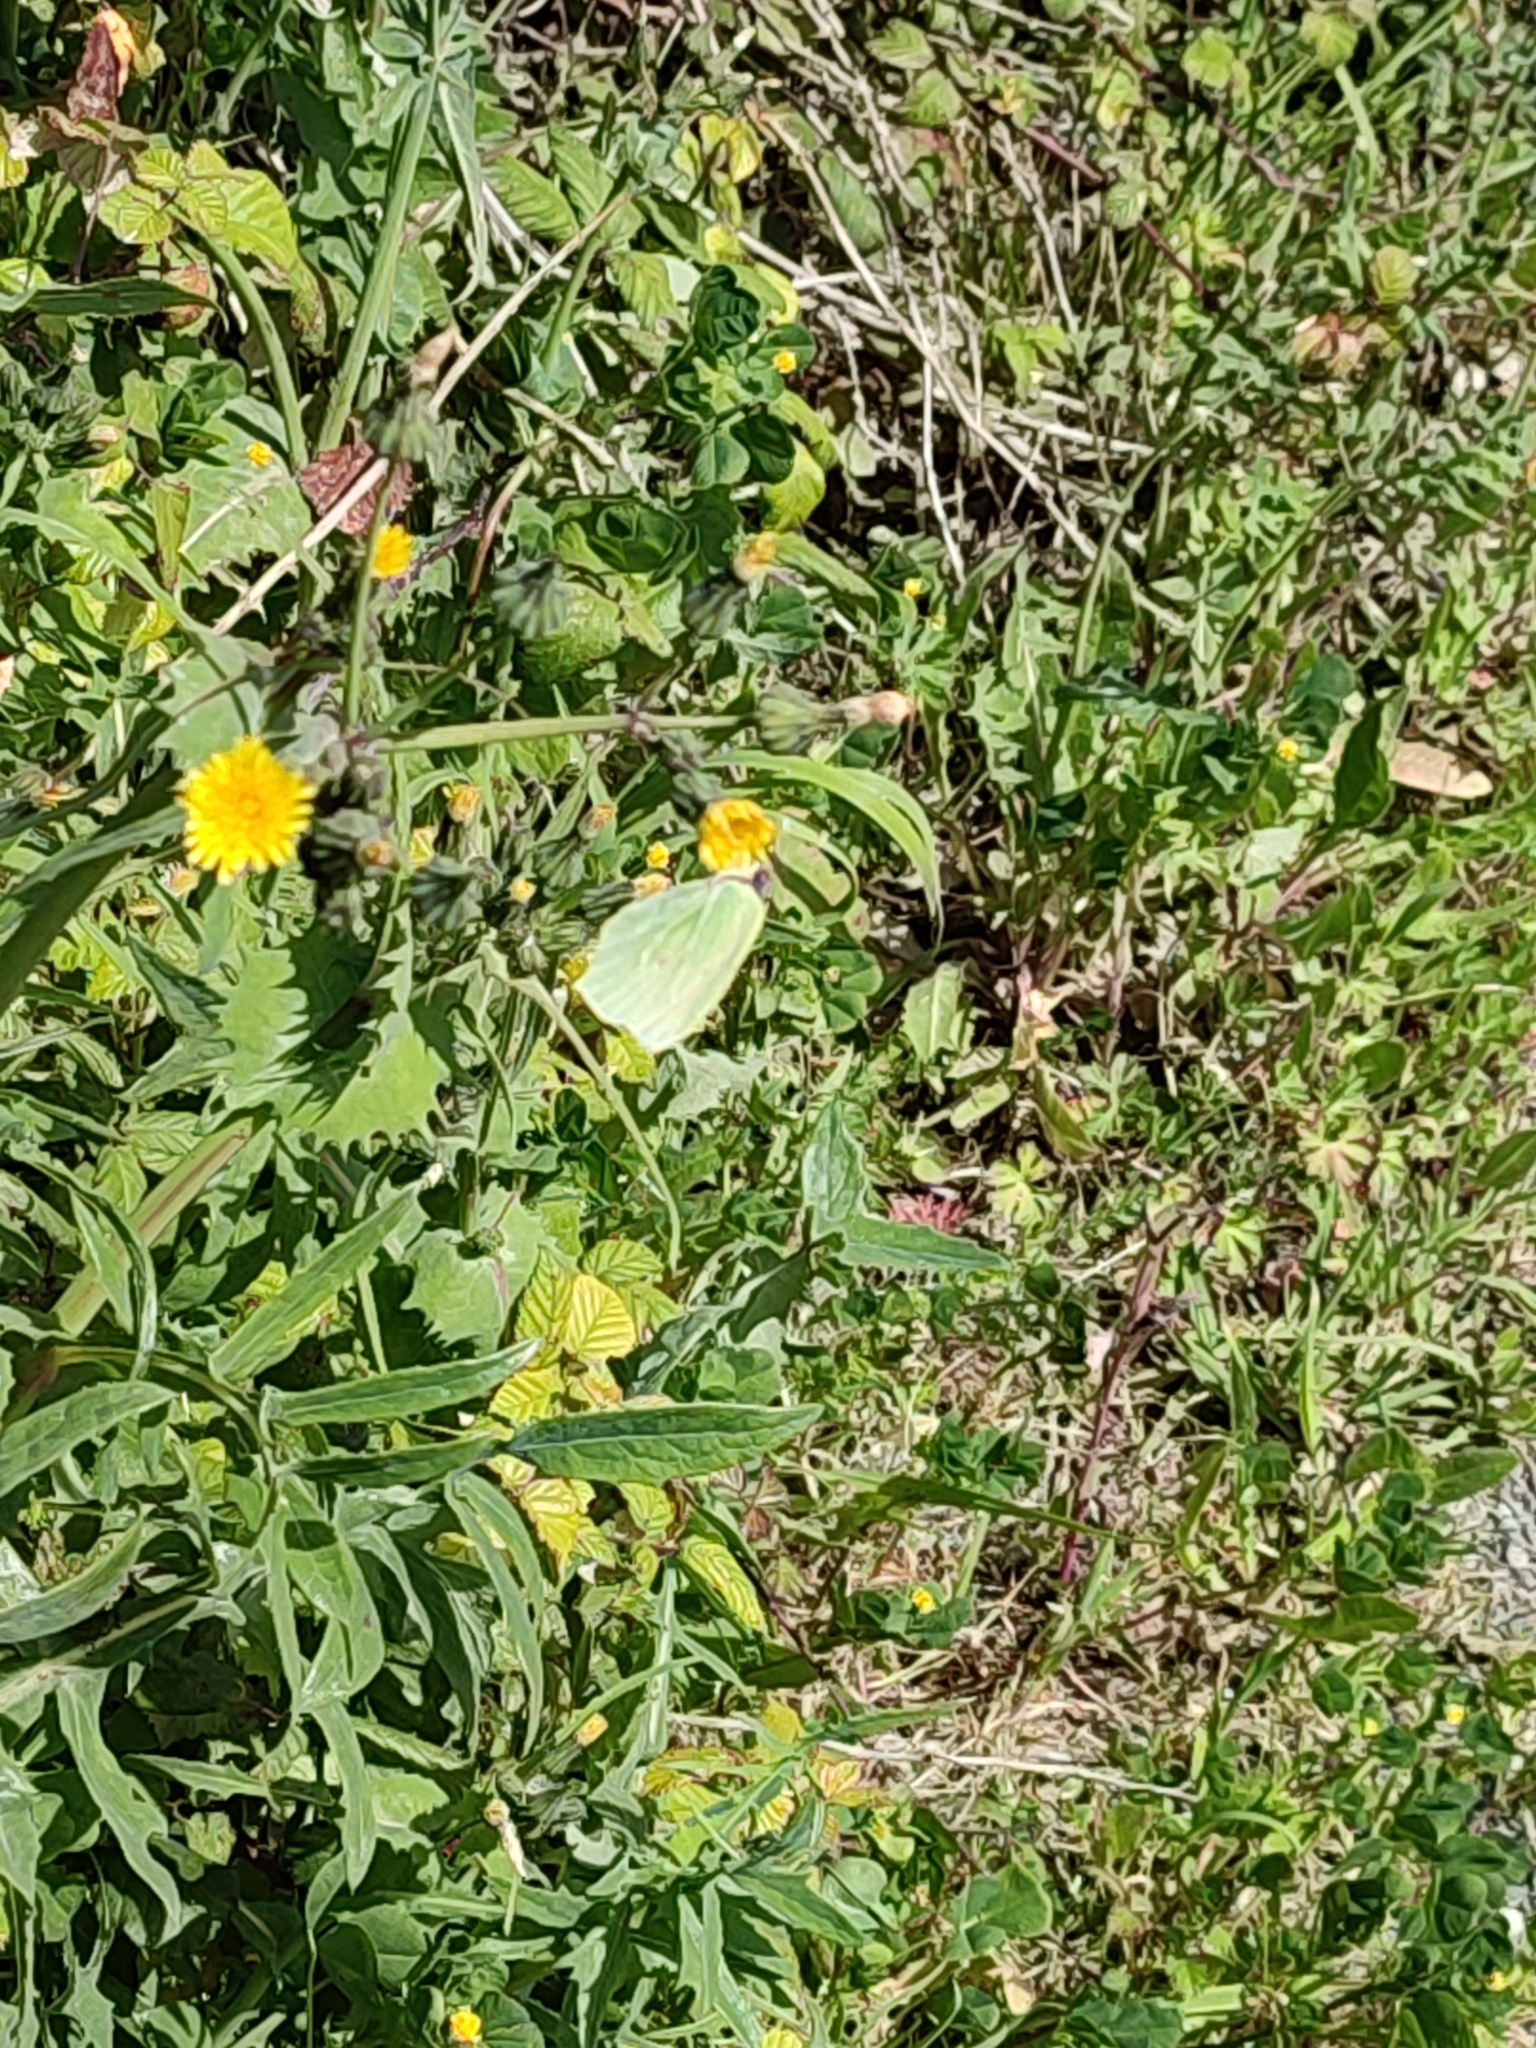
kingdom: Animalia
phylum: Arthropoda
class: Insecta
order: Lepidoptera
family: Pieridae
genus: Gonepteryx
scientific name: Gonepteryx cleopatra
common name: Cleopatra
